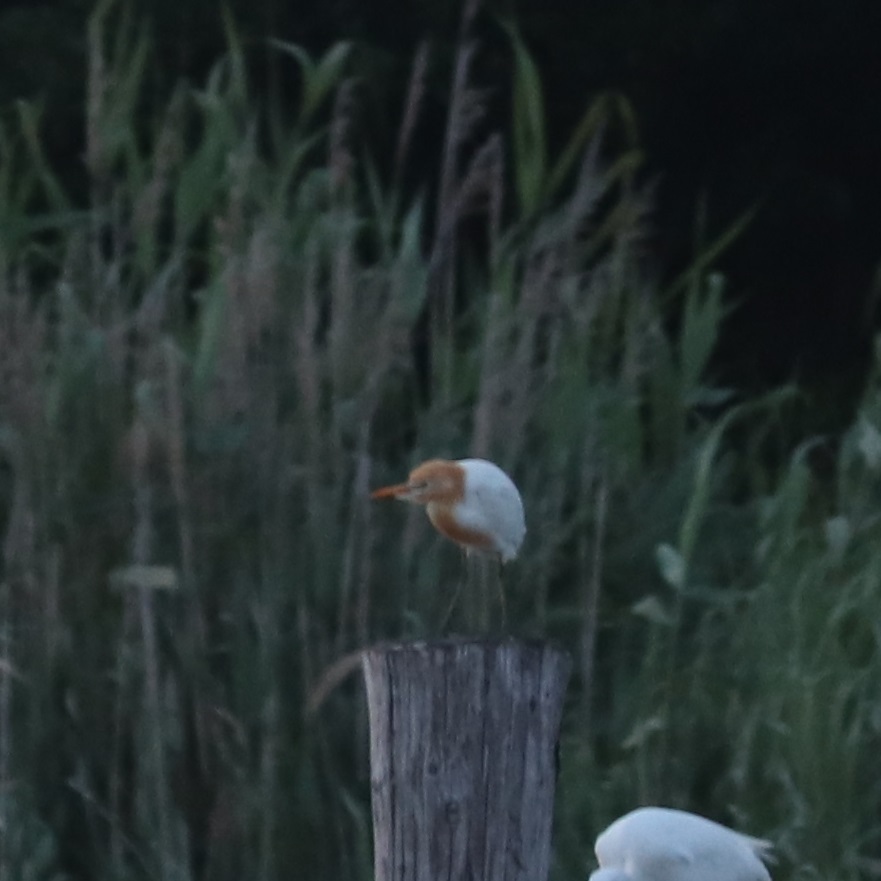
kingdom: Animalia
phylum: Chordata
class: Aves
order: Pelecaniformes
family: Ardeidae
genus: Bubulcus
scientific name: Bubulcus coromandus
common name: Eastern cattle egret
